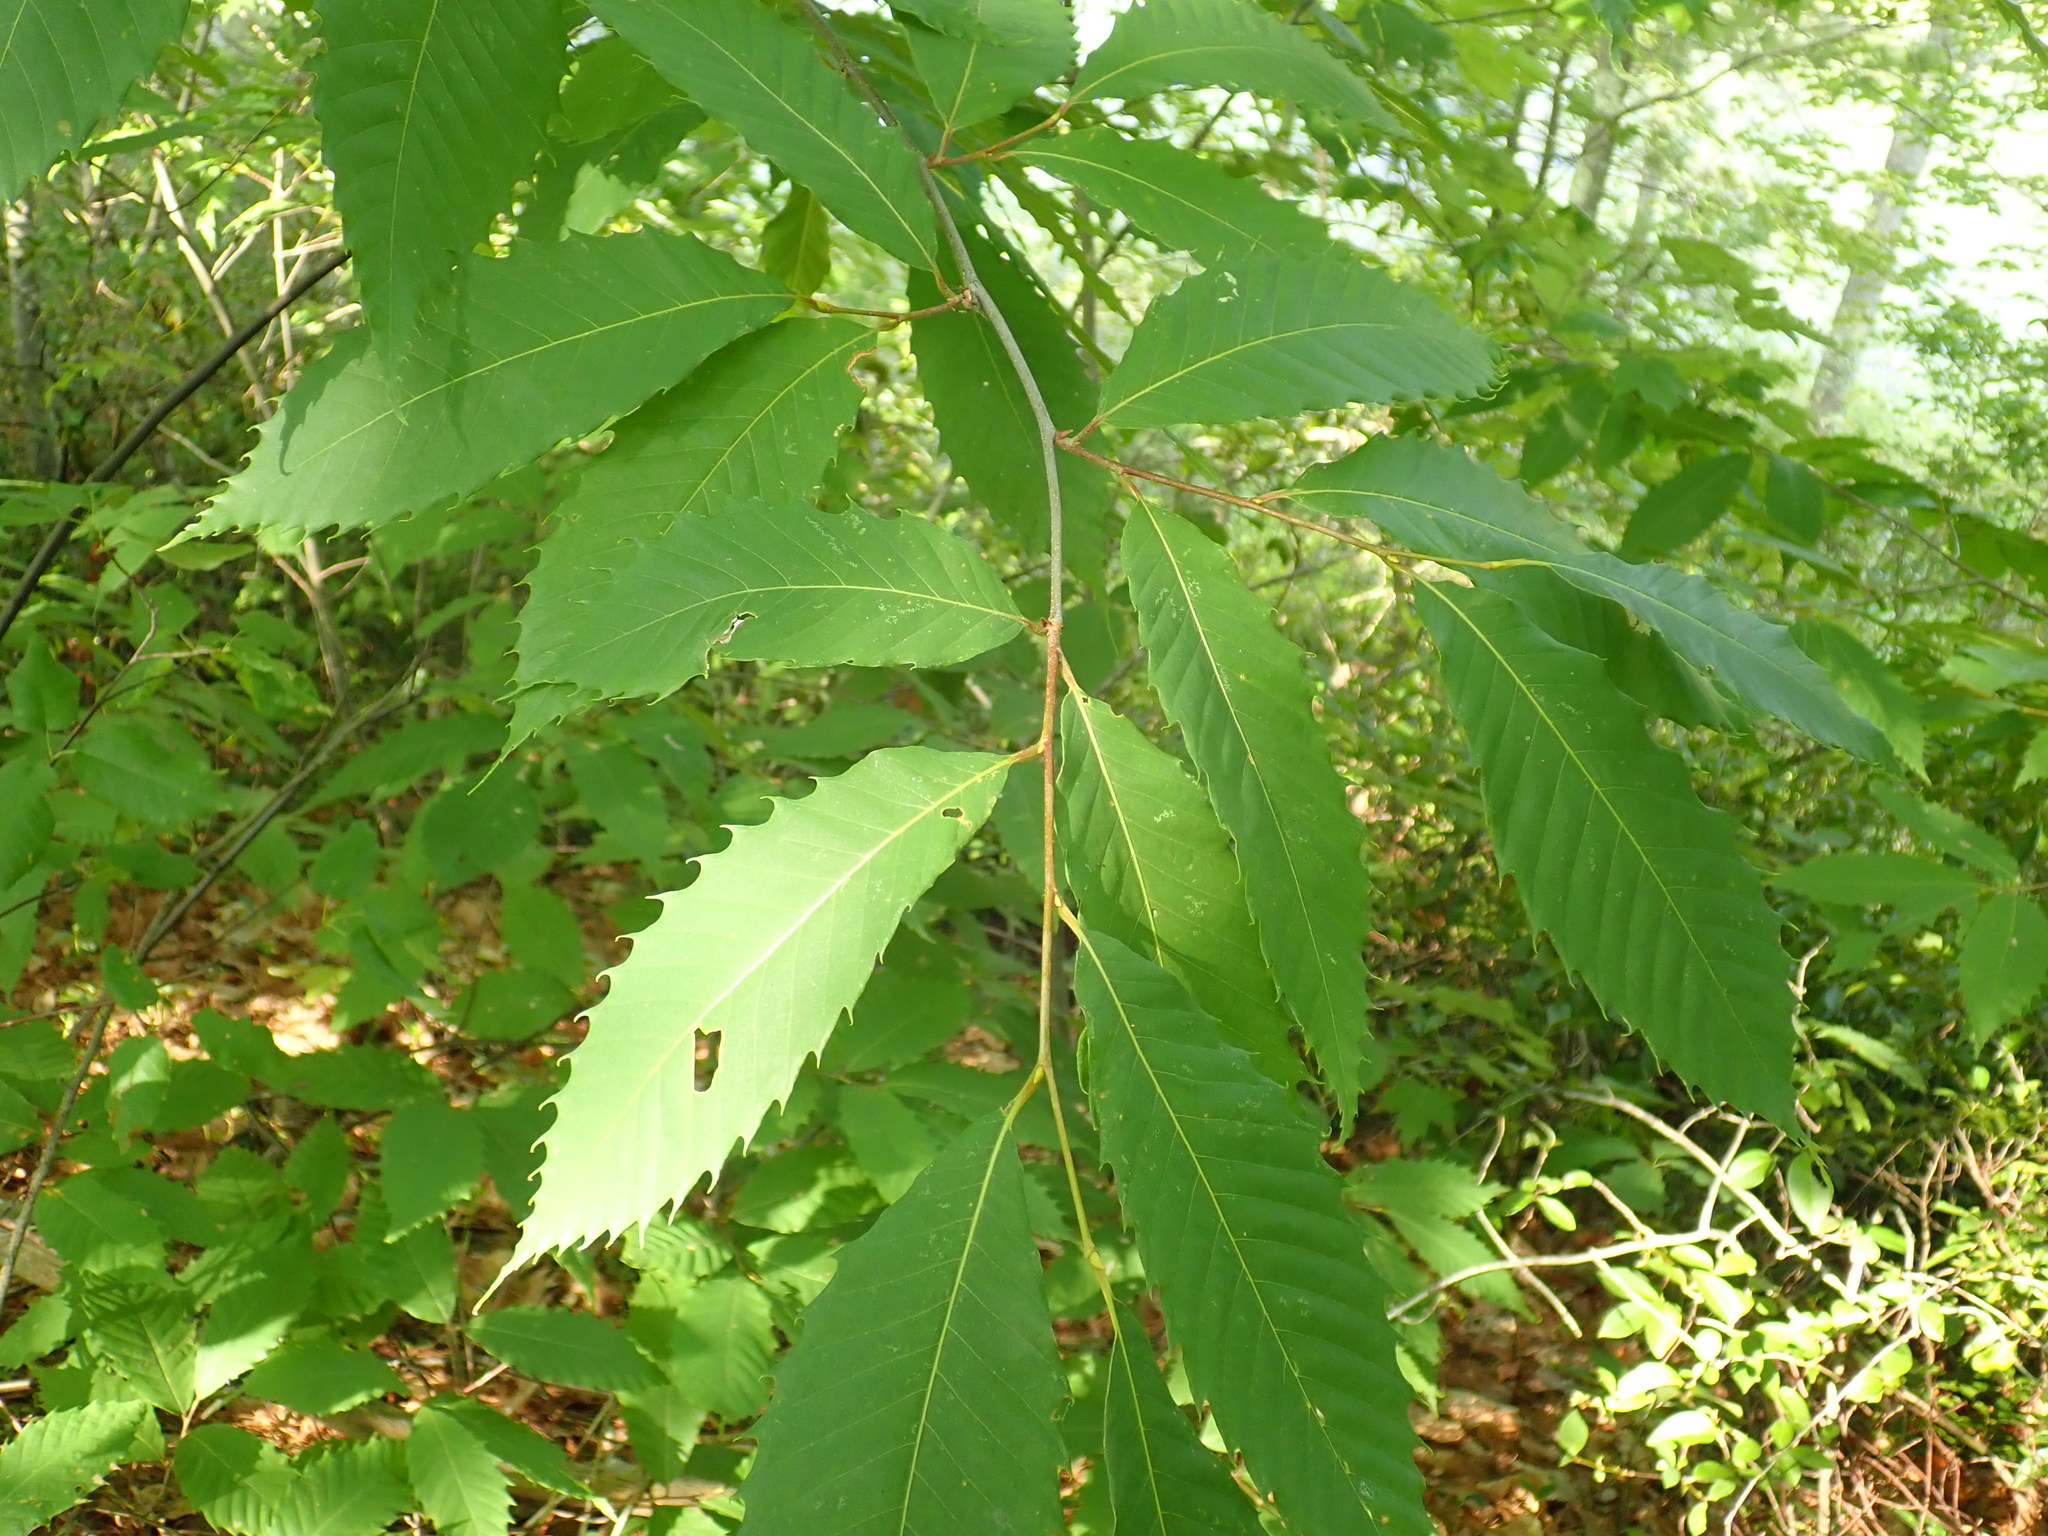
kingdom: Plantae
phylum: Tracheophyta
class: Magnoliopsida
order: Fagales
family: Fagaceae
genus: Castanea
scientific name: Castanea dentata
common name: American chestnut
